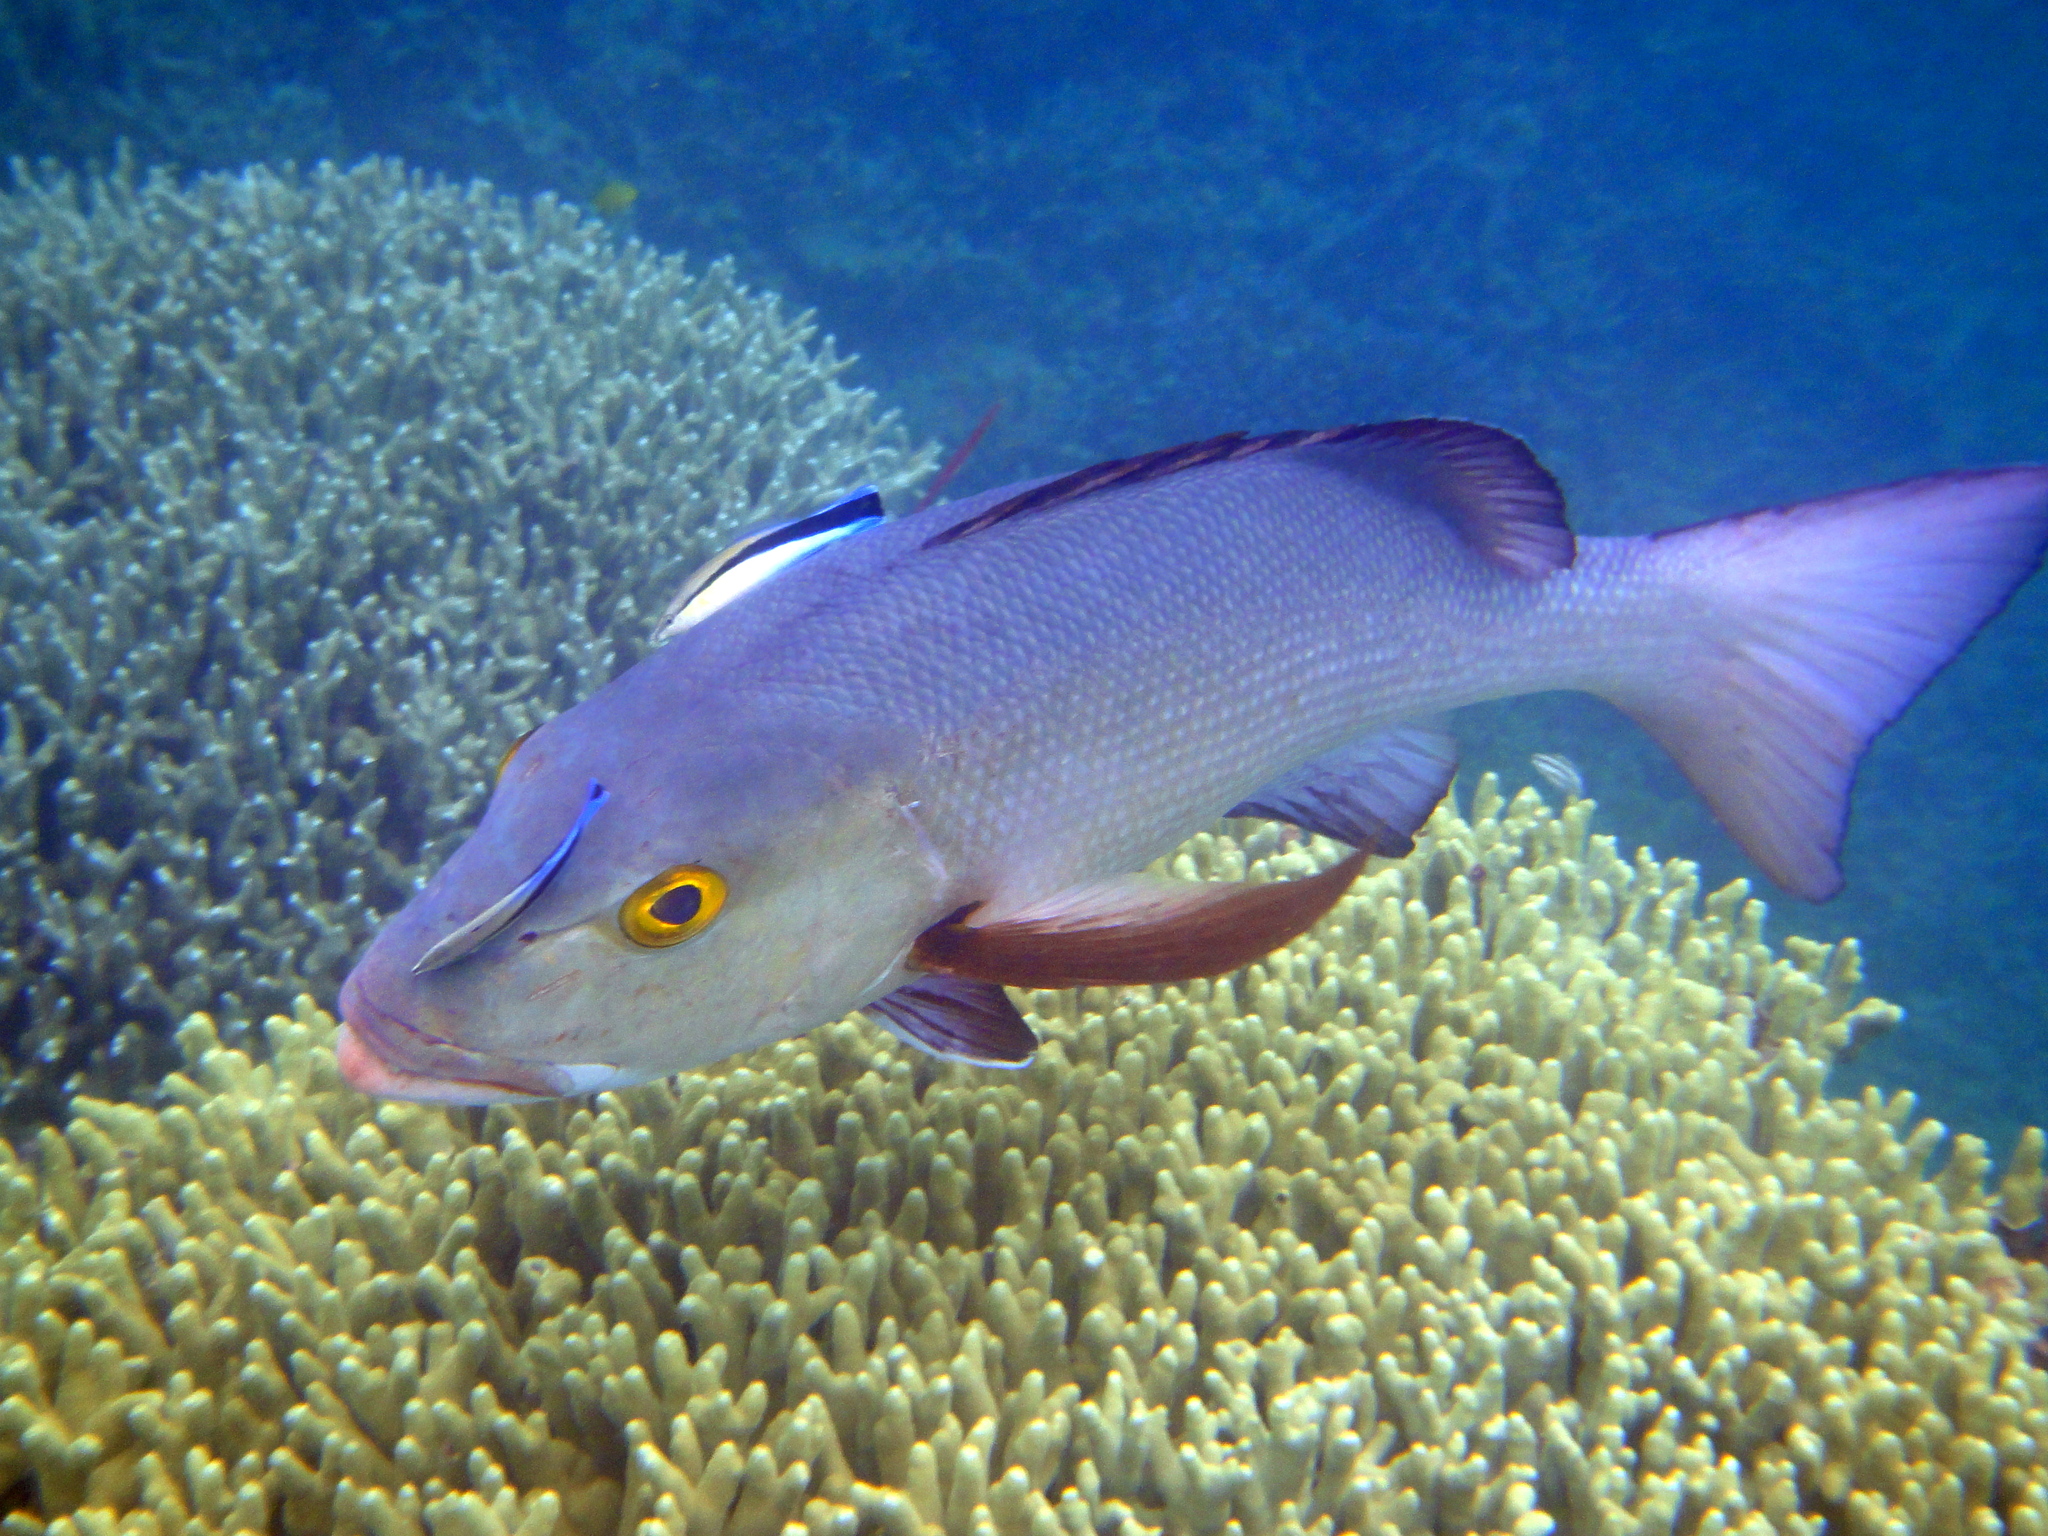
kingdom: Animalia
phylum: Chordata
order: Perciformes
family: Lutjanidae
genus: Lutjanus
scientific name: Lutjanus bohar
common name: Red bass
